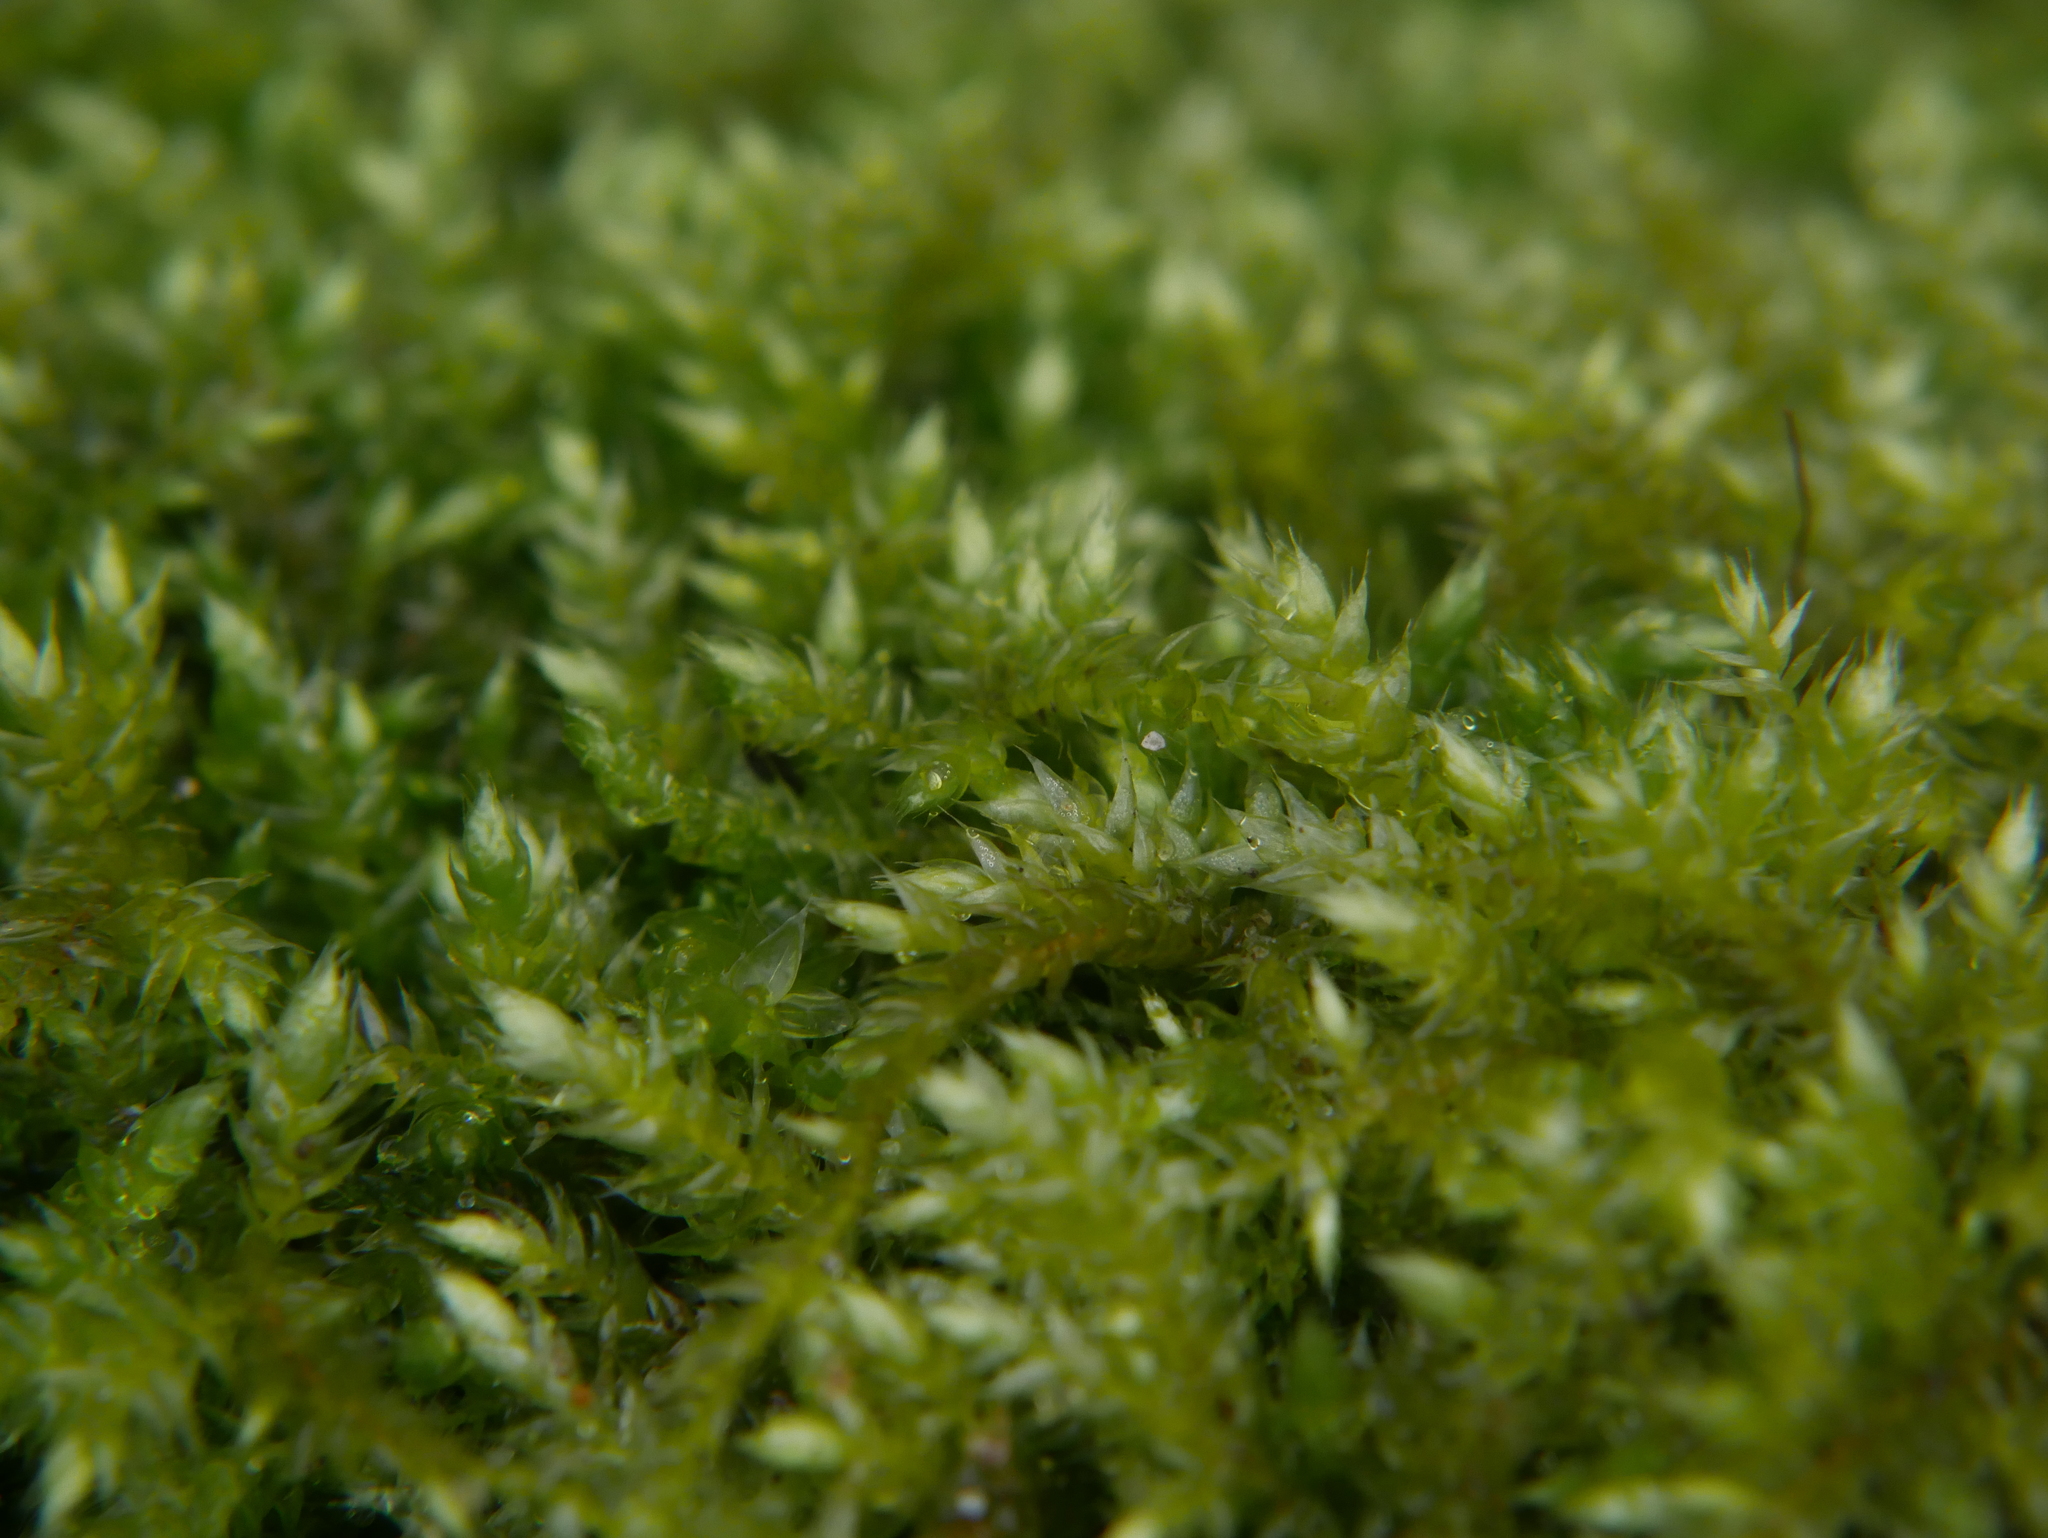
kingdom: Plantae
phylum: Bryophyta
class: Bryopsida
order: Hypnales
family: Hypnaceae
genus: Hypnum
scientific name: Hypnum cupressiforme
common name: Cypress-leaved plait-moss
